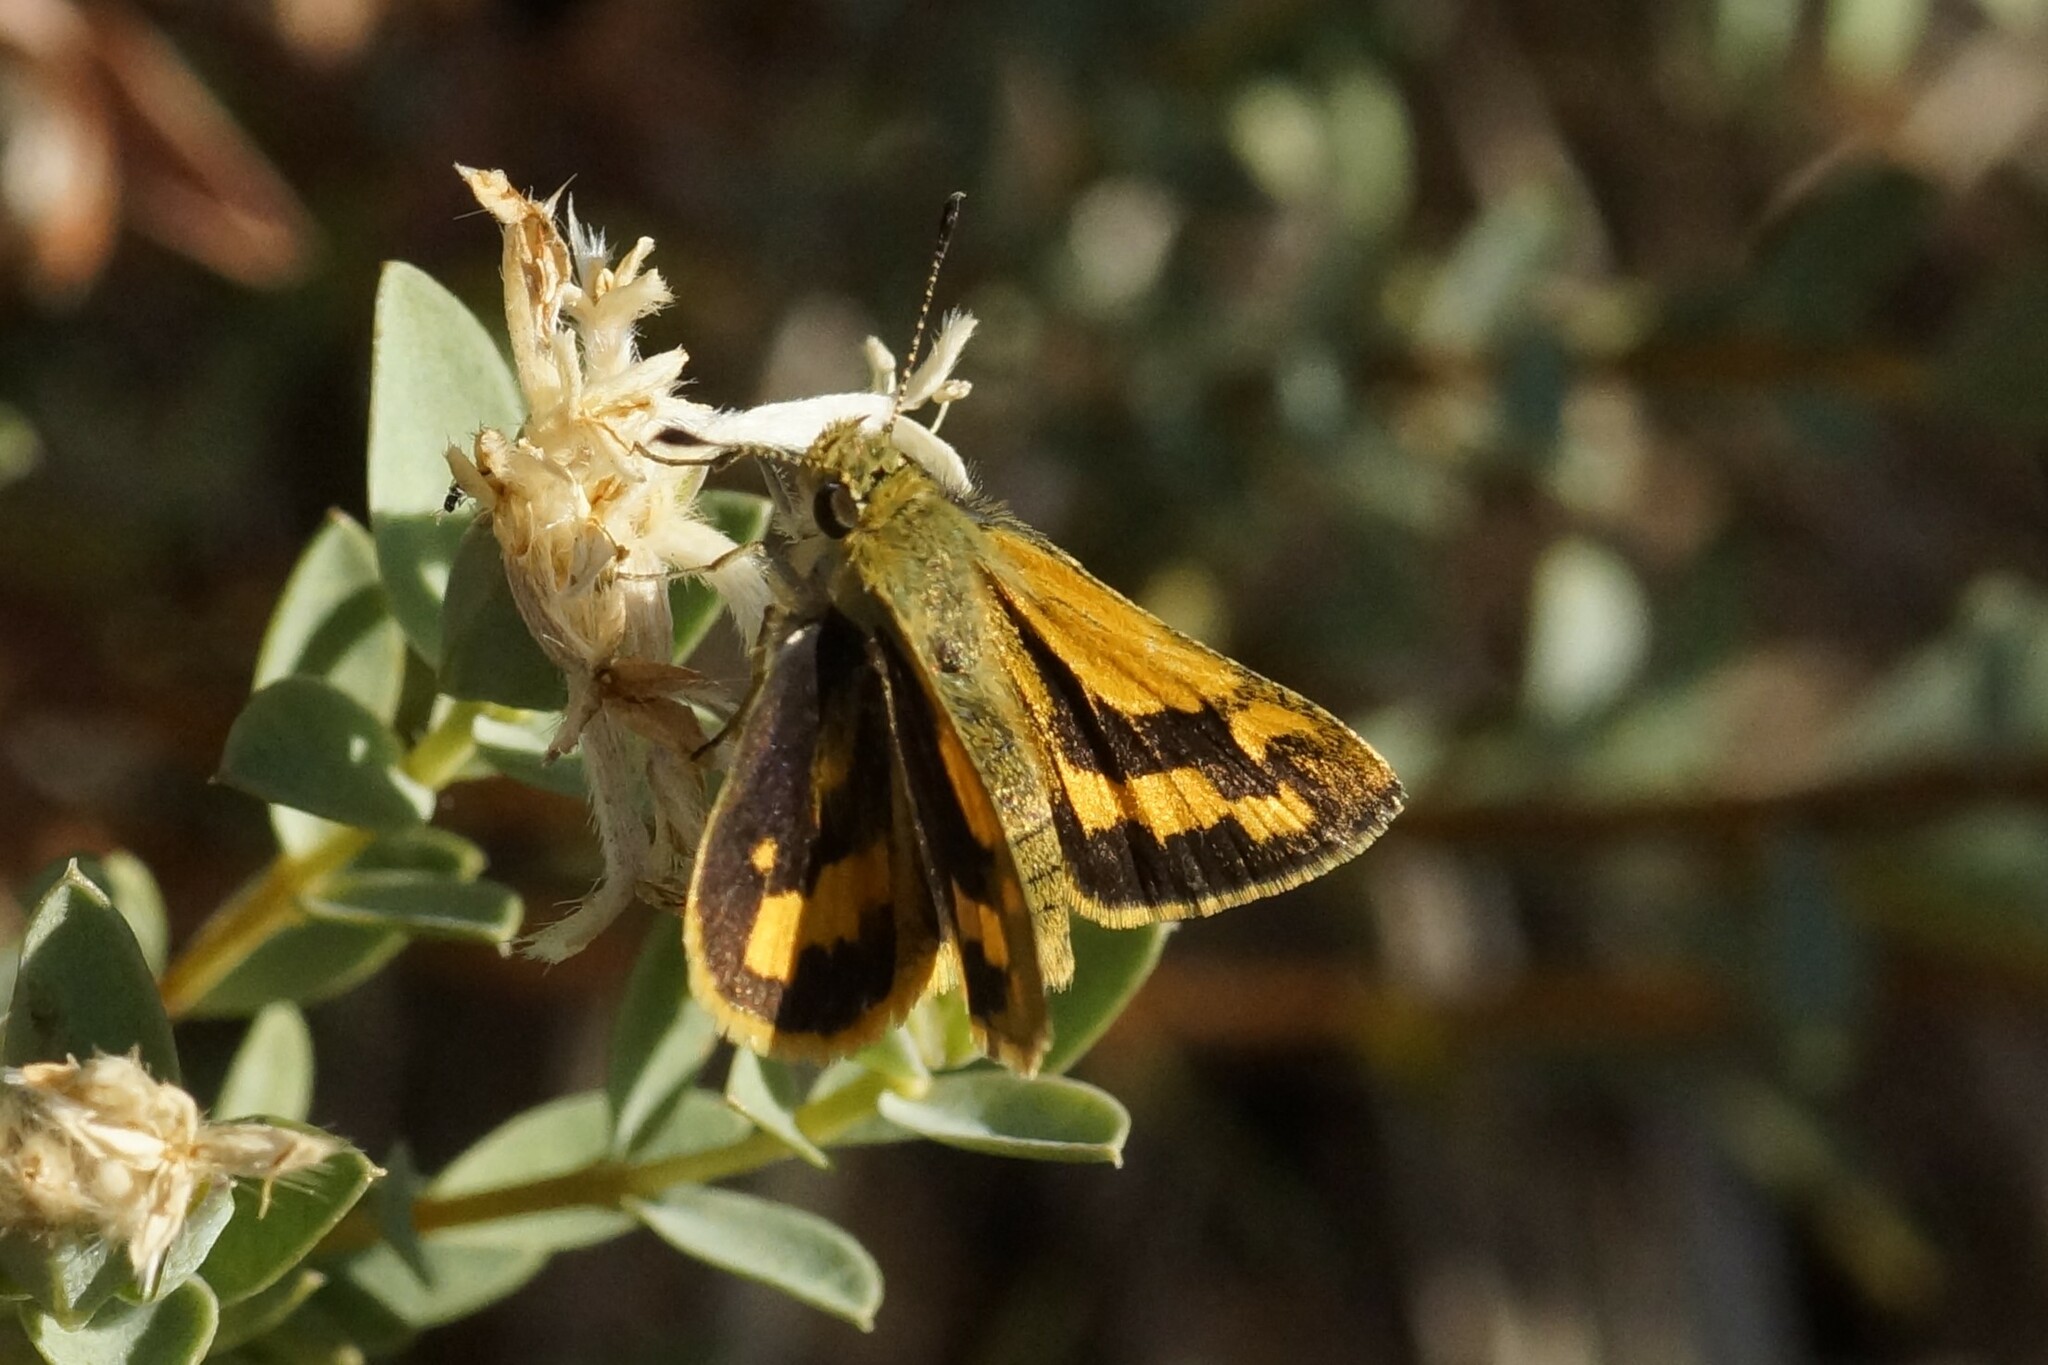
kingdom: Animalia
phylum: Arthropoda
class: Insecta
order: Lepidoptera
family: Hesperiidae
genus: Ocybadistes
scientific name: Ocybadistes walkeri
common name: Yellow-banded dart
